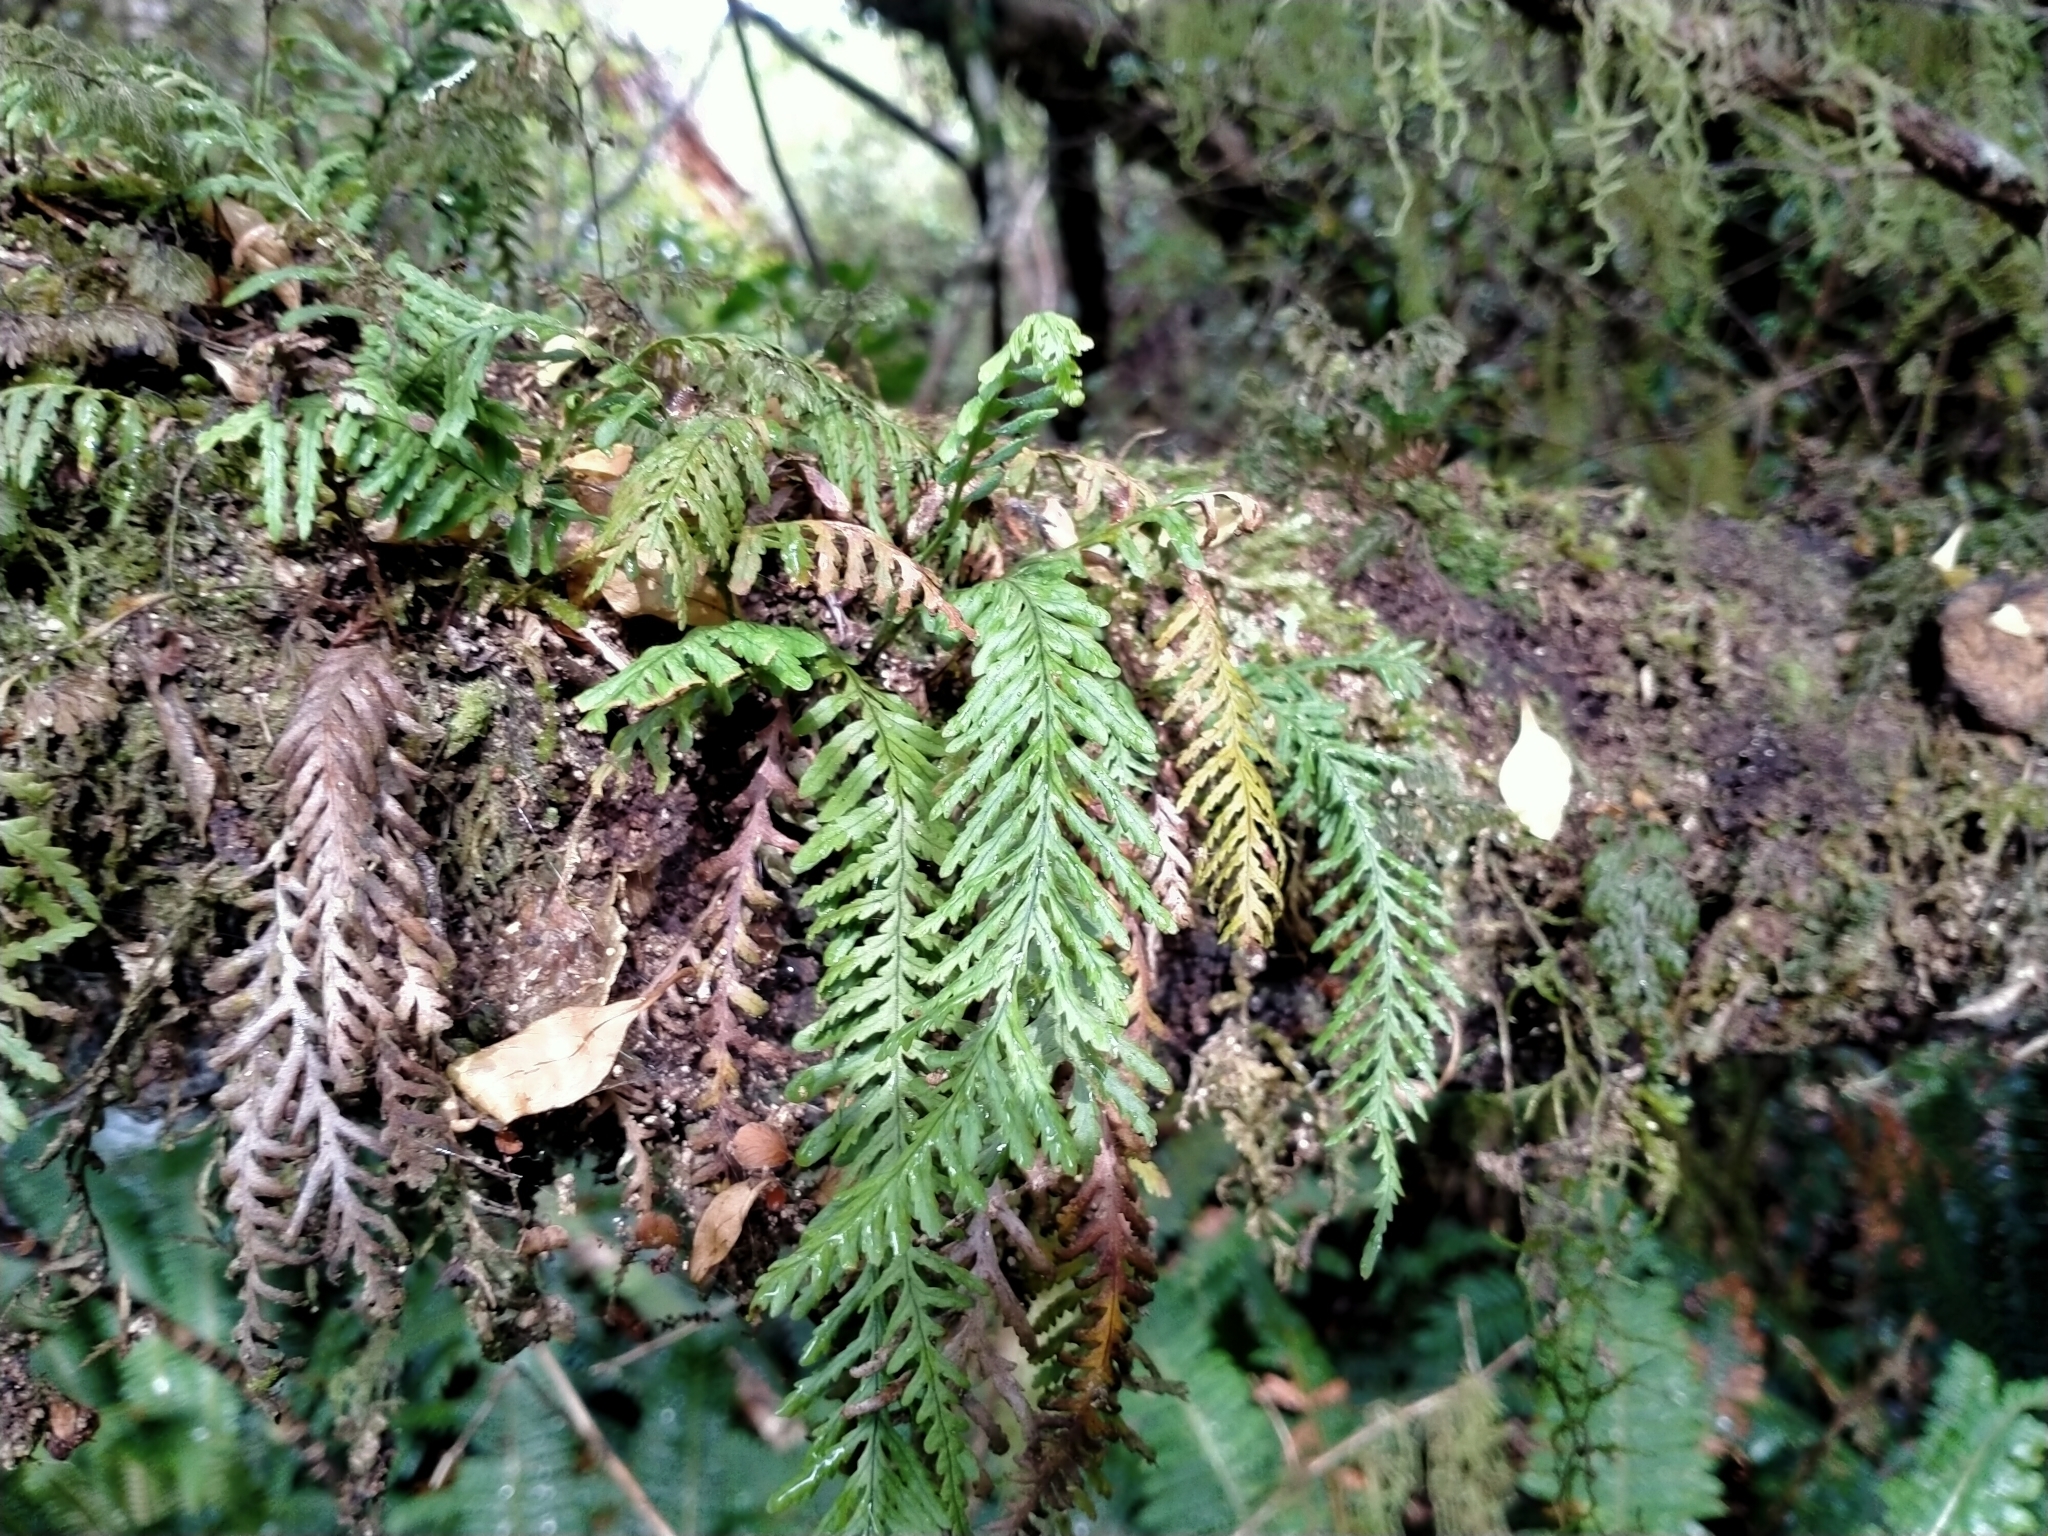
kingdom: Plantae
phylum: Tracheophyta
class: Polypodiopsida
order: Polypodiales
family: Polypodiaceae
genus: Notogrammitis
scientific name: Notogrammitis heterophylla
